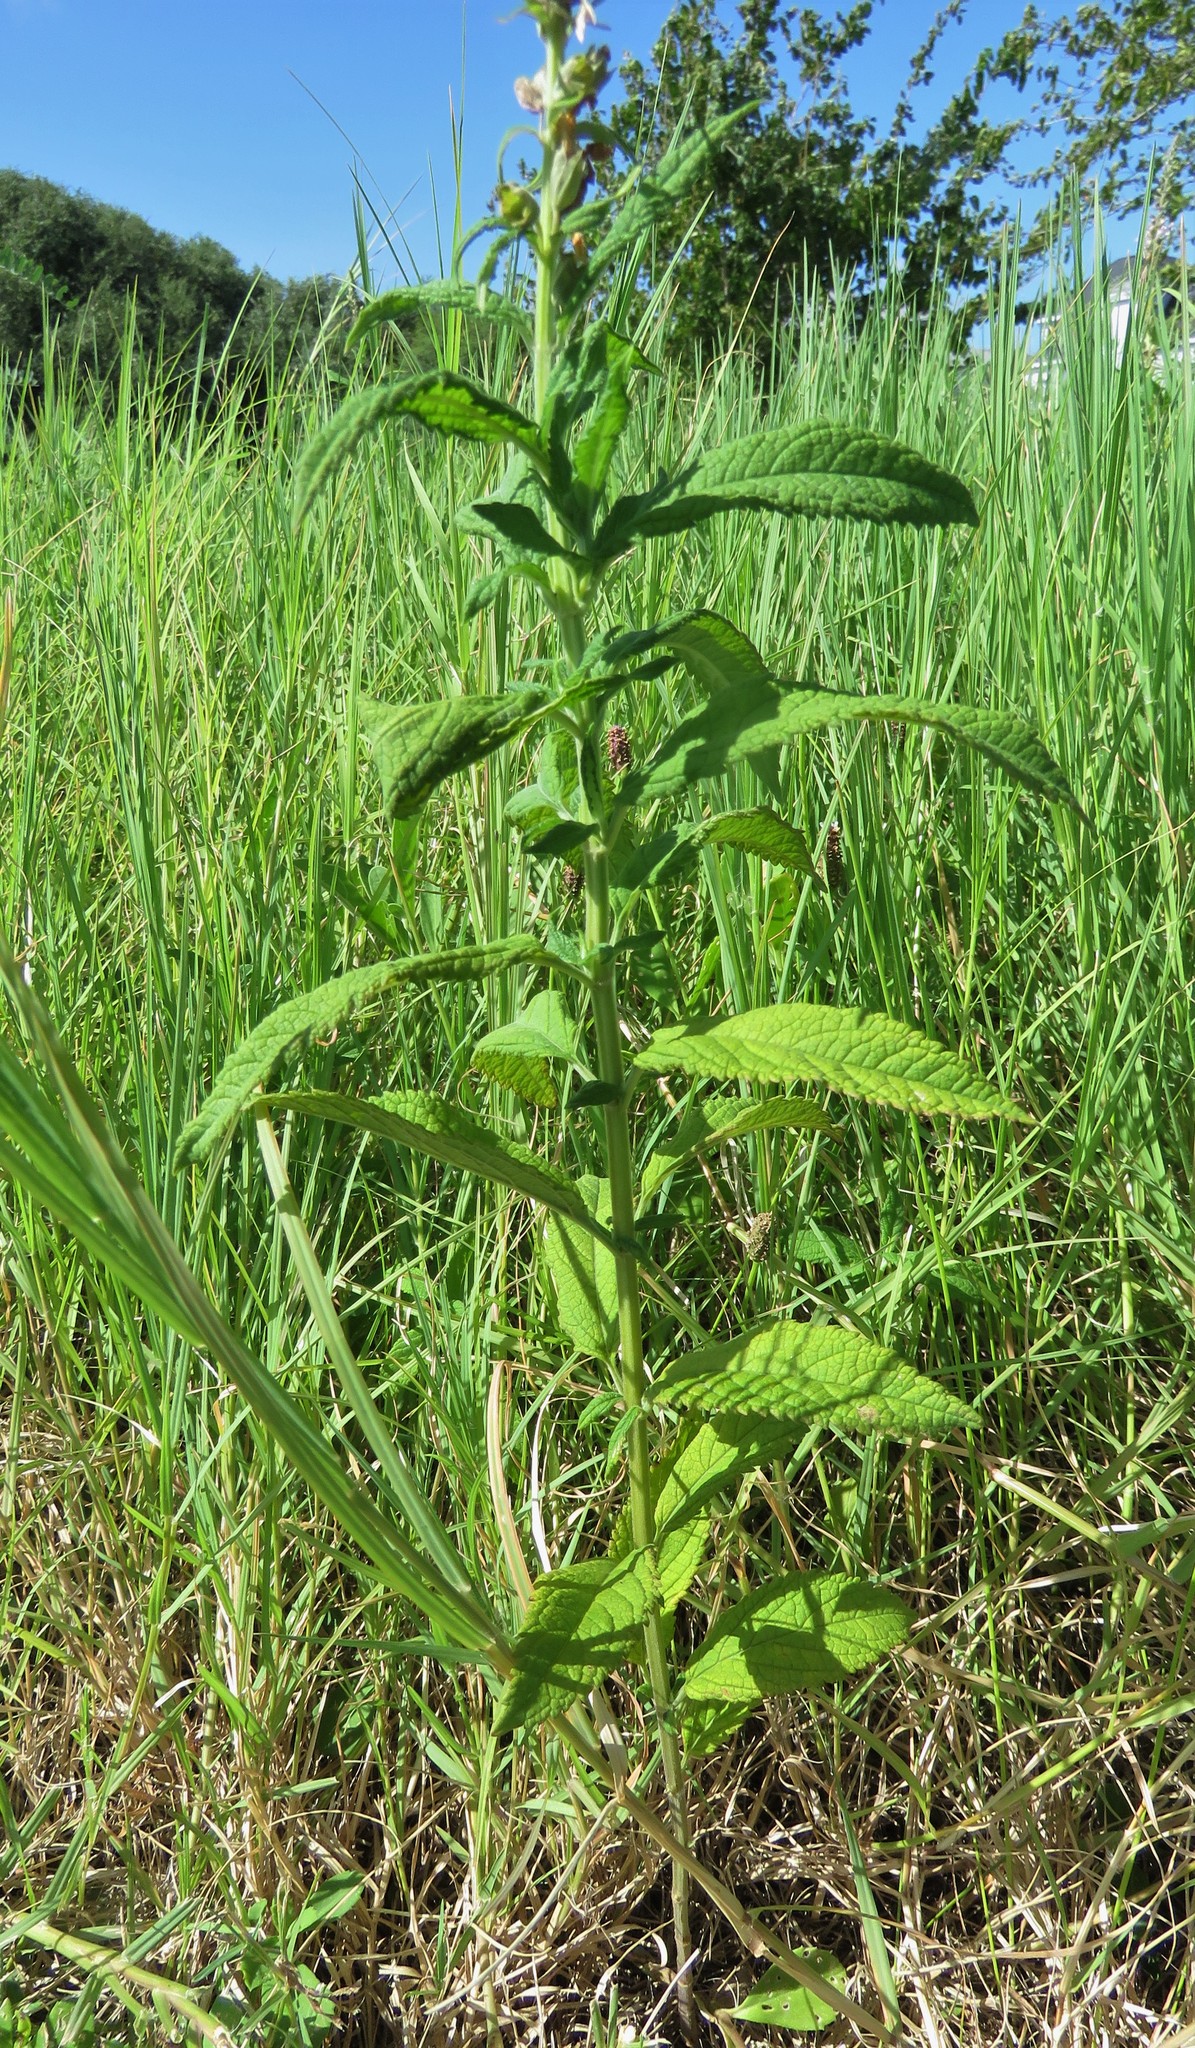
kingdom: Plantae
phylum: Tracheophyta
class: Magnoliopsida
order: Lamiales
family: Lamiaceae
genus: Teucrium
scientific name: Teucrium canadense
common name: American germander
